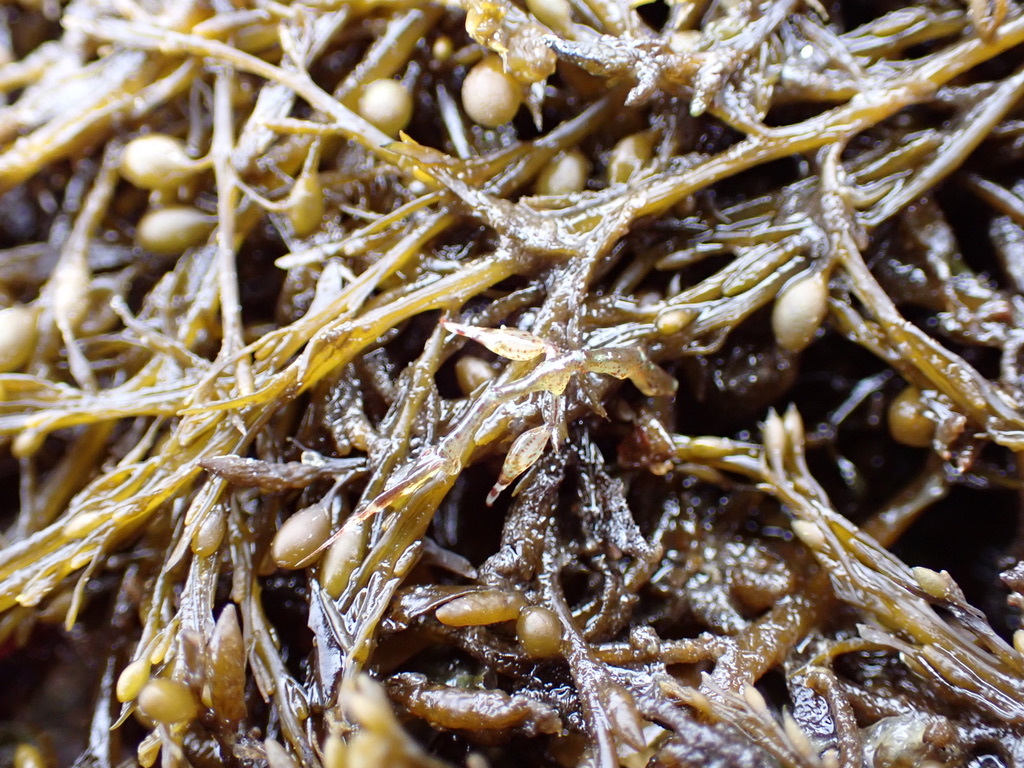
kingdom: Chromista
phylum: Ochrophyta
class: Phaeophyceae
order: Fucales
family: Sargassaceae
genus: Sargassum
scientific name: Sargassum muticum
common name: Japweed
